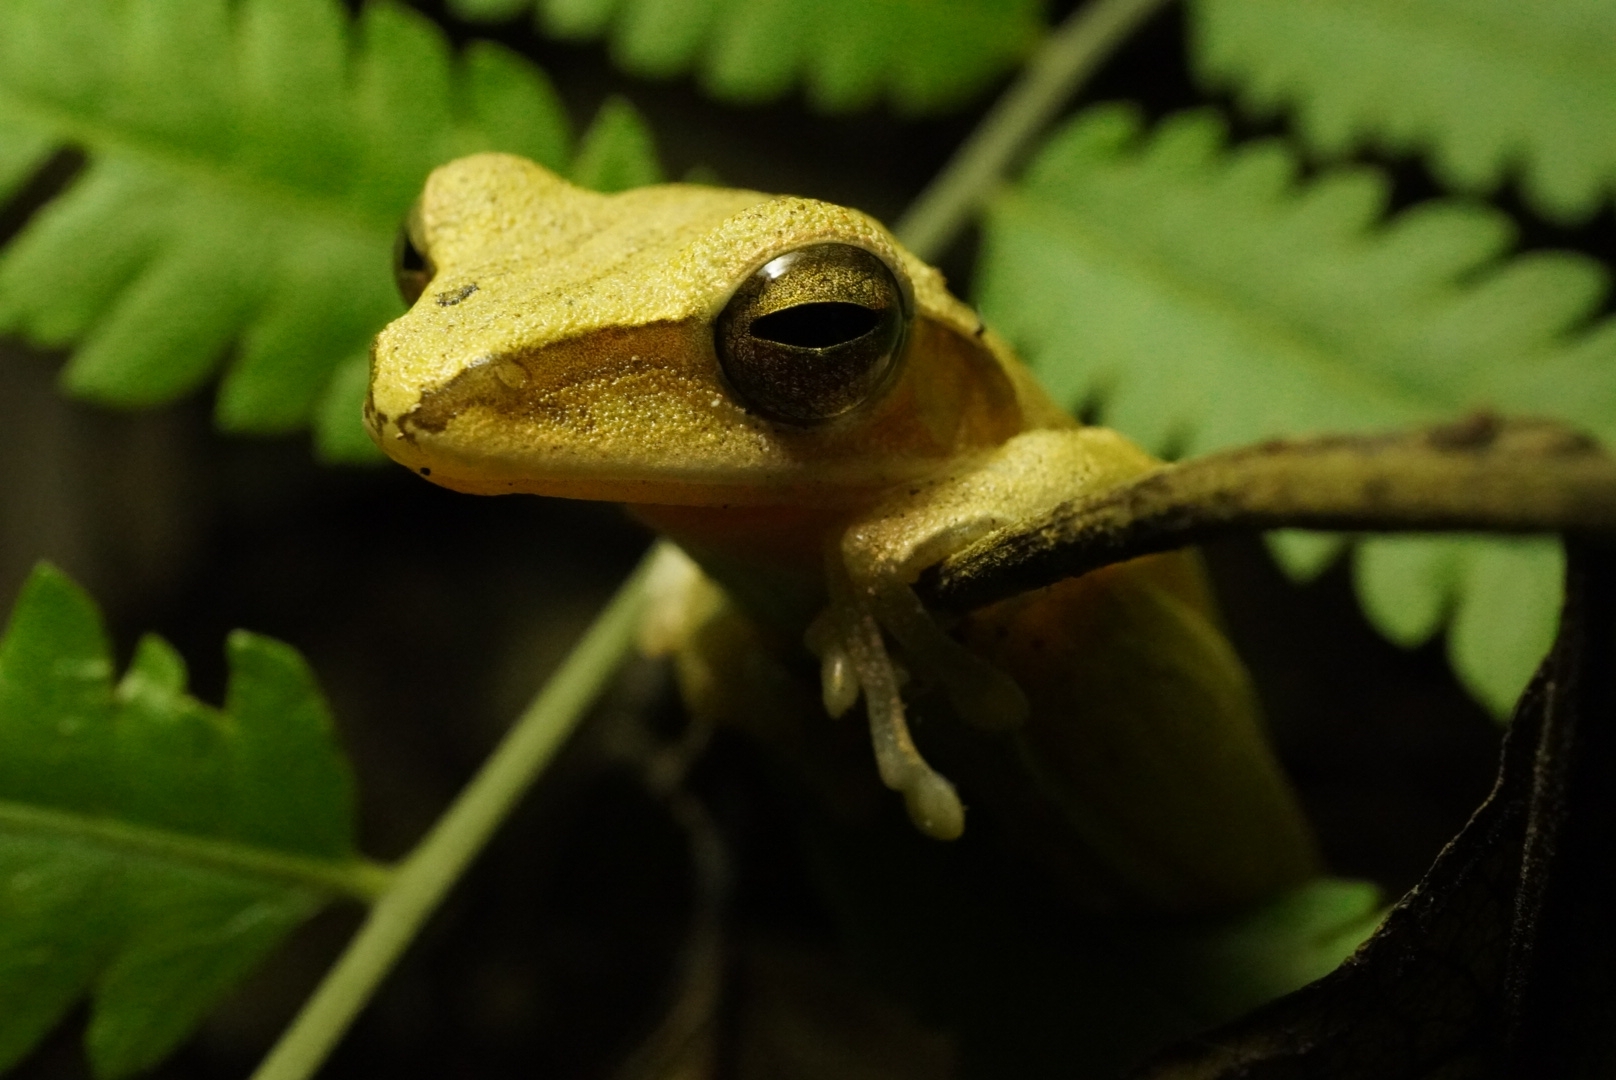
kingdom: Animalia
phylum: Chordata
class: Amphibia
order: Anura
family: Rhacophoridae
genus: Polypedates
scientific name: Polypedates leucomystax
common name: Common tree frog/four-lined tree frog
